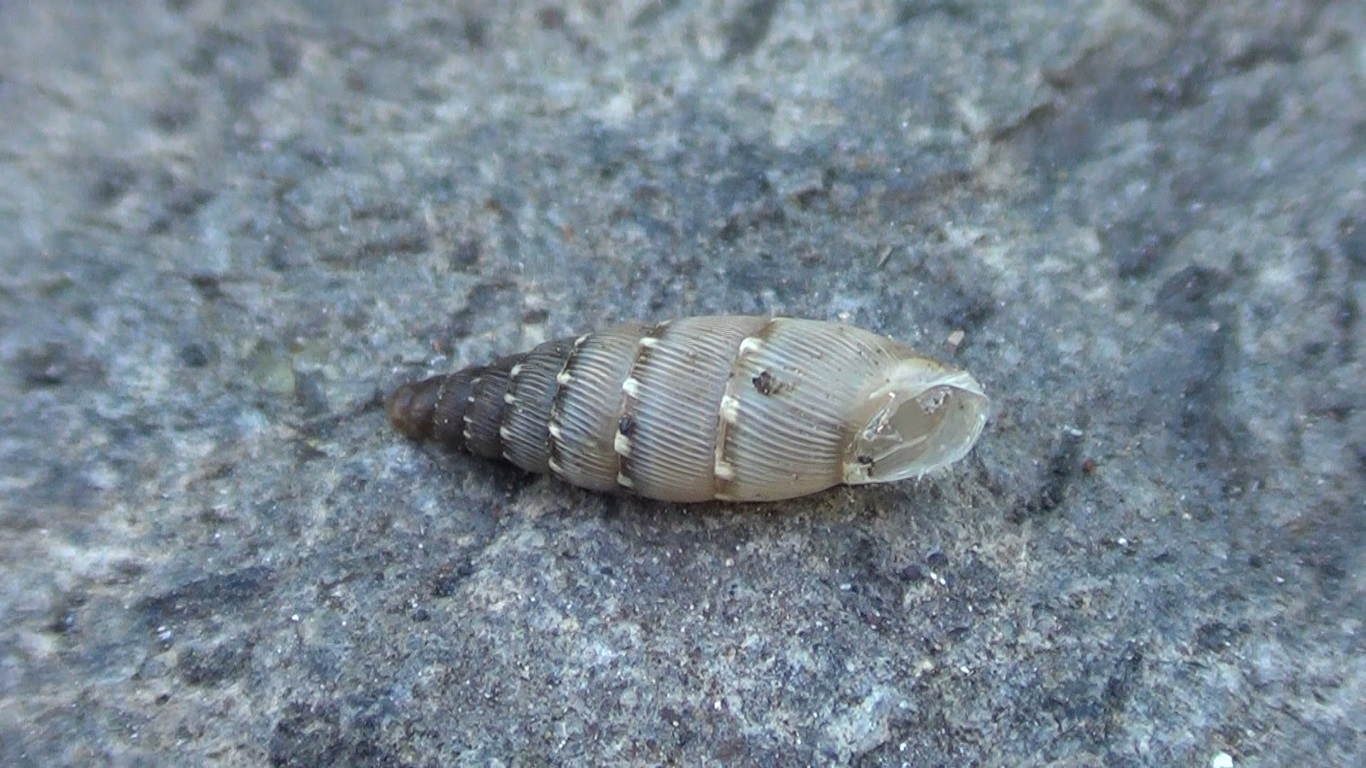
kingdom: Animalia
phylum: Mollusca
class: Gastropoda
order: Stylommatophora
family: Clausiliidae
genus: Papillifera
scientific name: Papillifera papillaris
